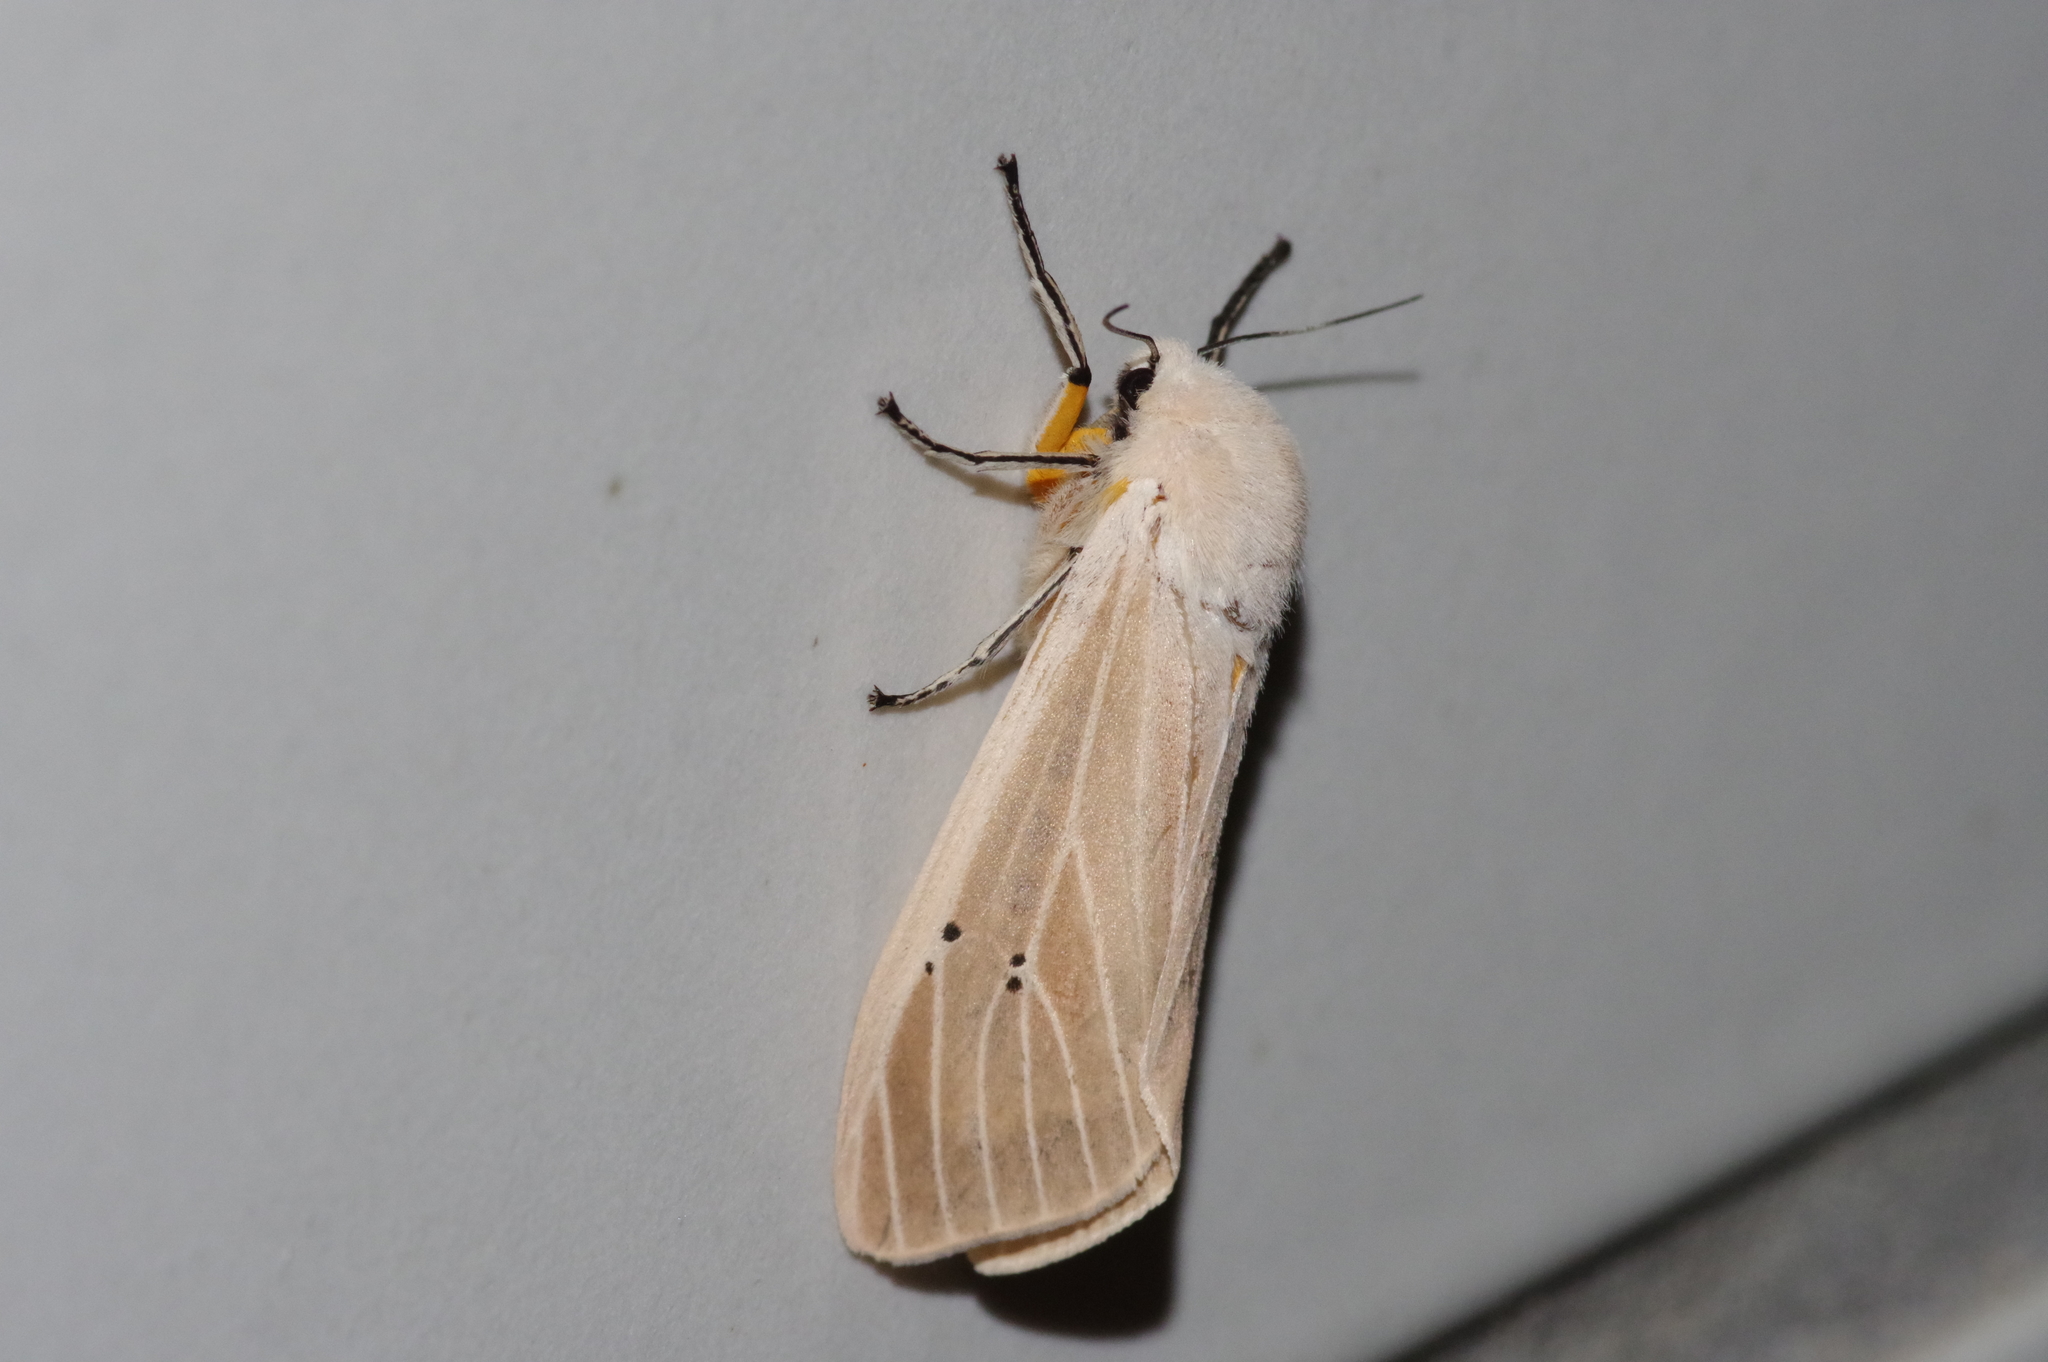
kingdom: Animalia
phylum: Arthropoda
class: Insecta
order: Lepidoptera
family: Erebidae
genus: Creatonotos
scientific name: Creatonotos transiens
